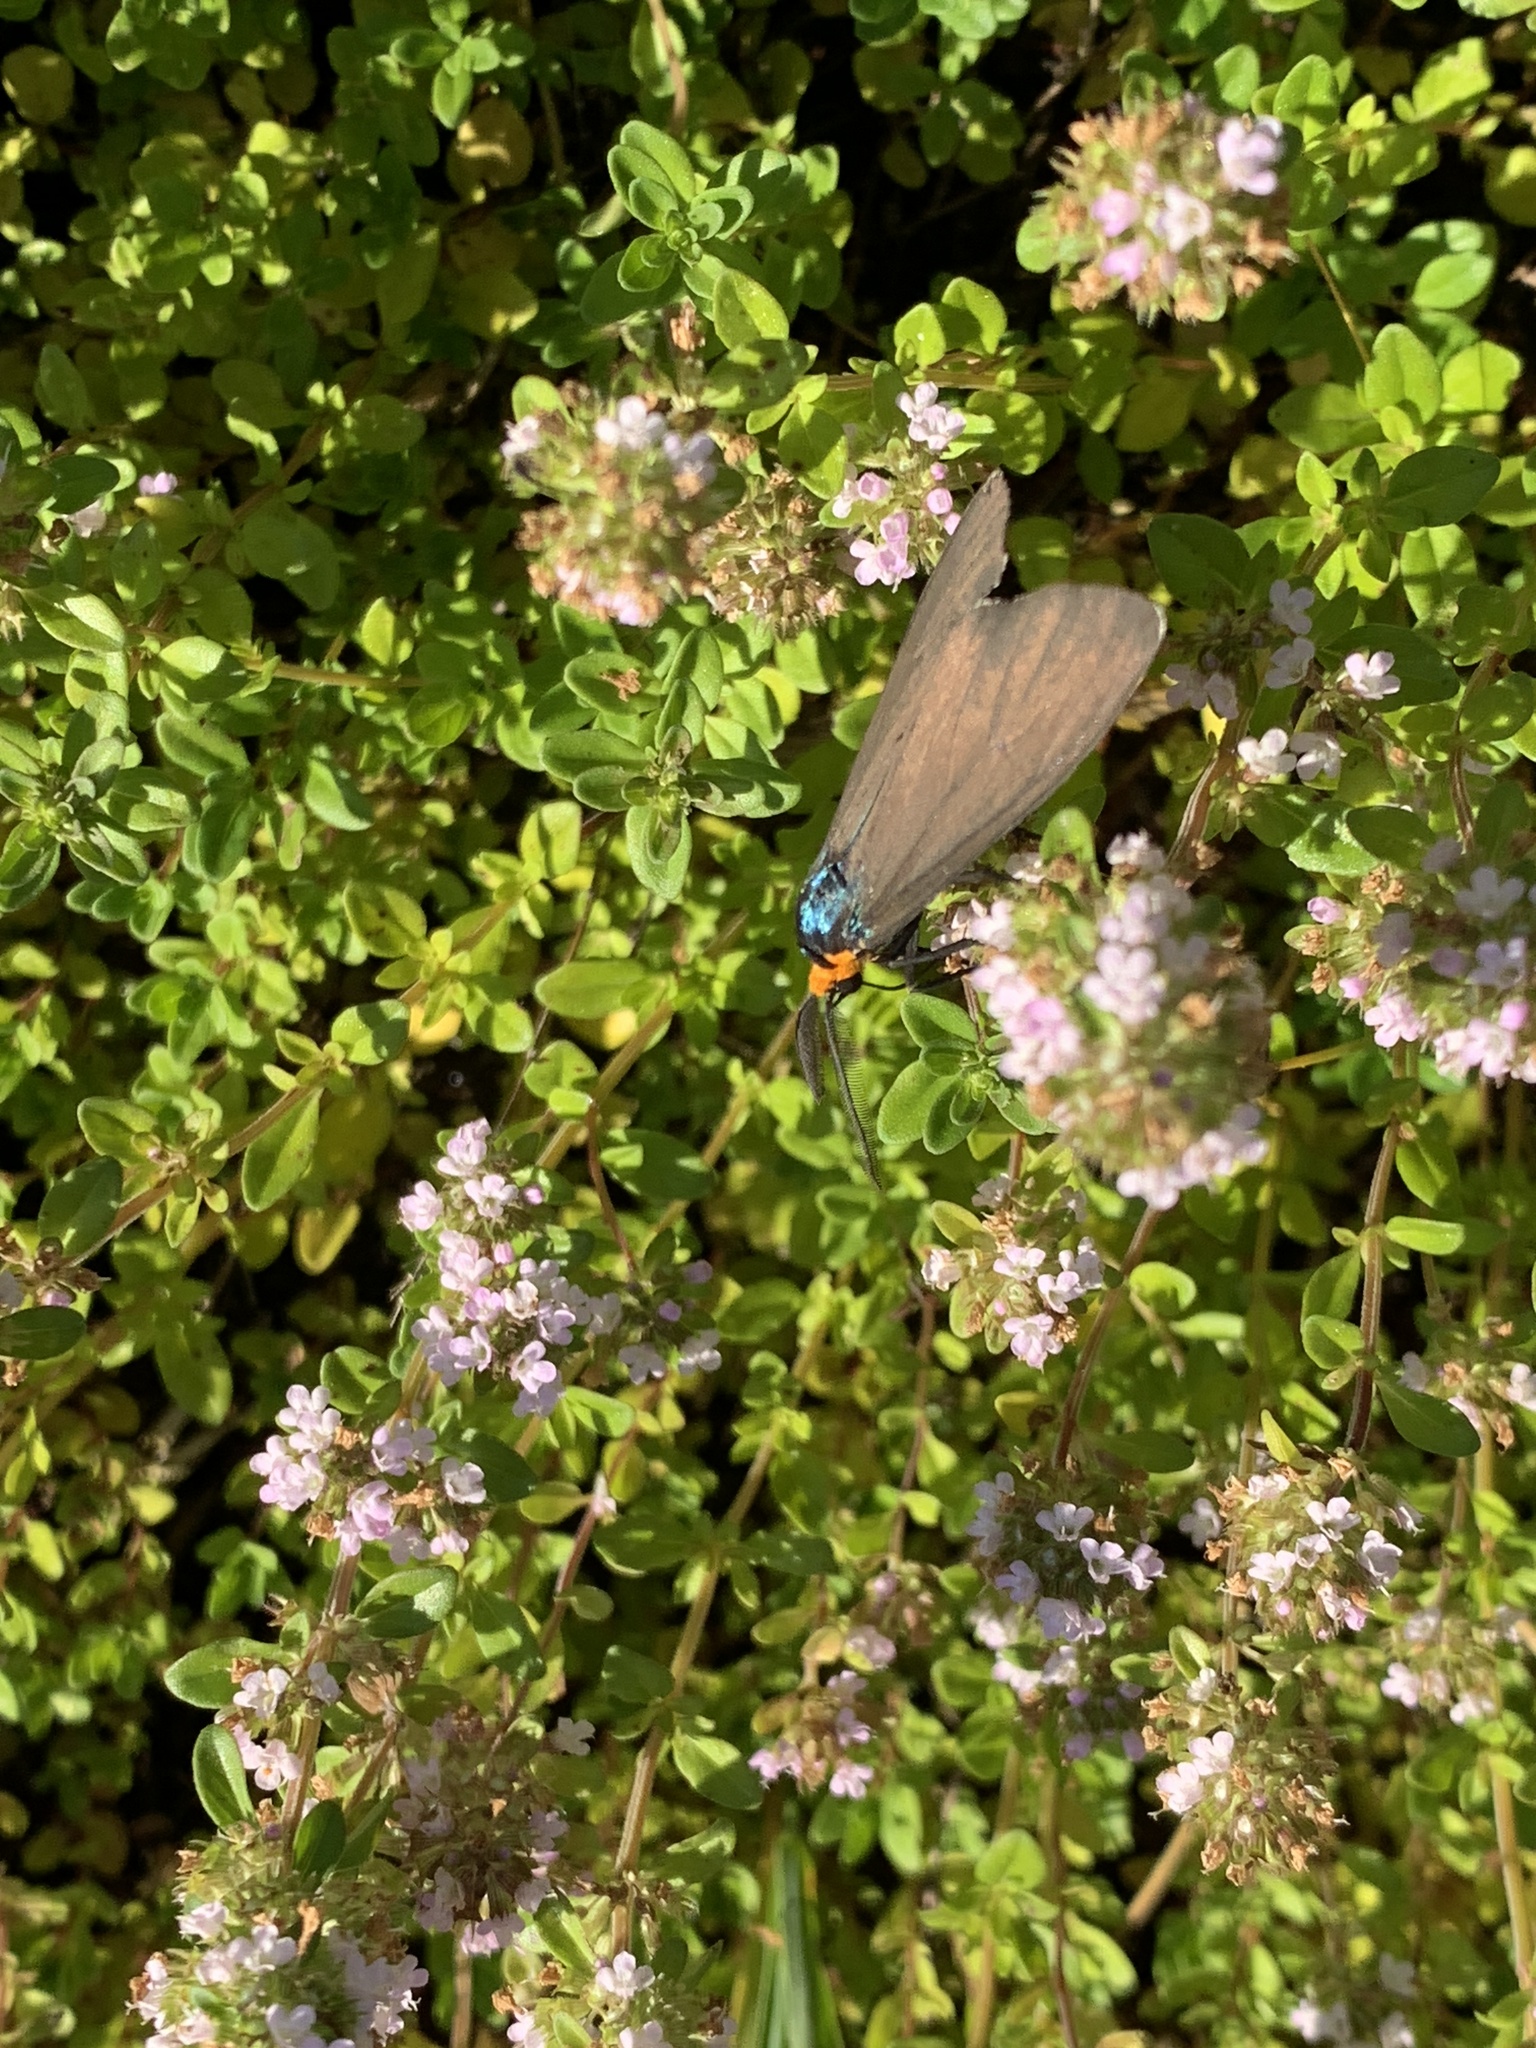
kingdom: Animalia
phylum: Arthropoda
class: Insecta
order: Lepidoptera
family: Erebidae
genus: Ctenucha
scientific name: Ctenucha virginica
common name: Virginia ctenucha moth
